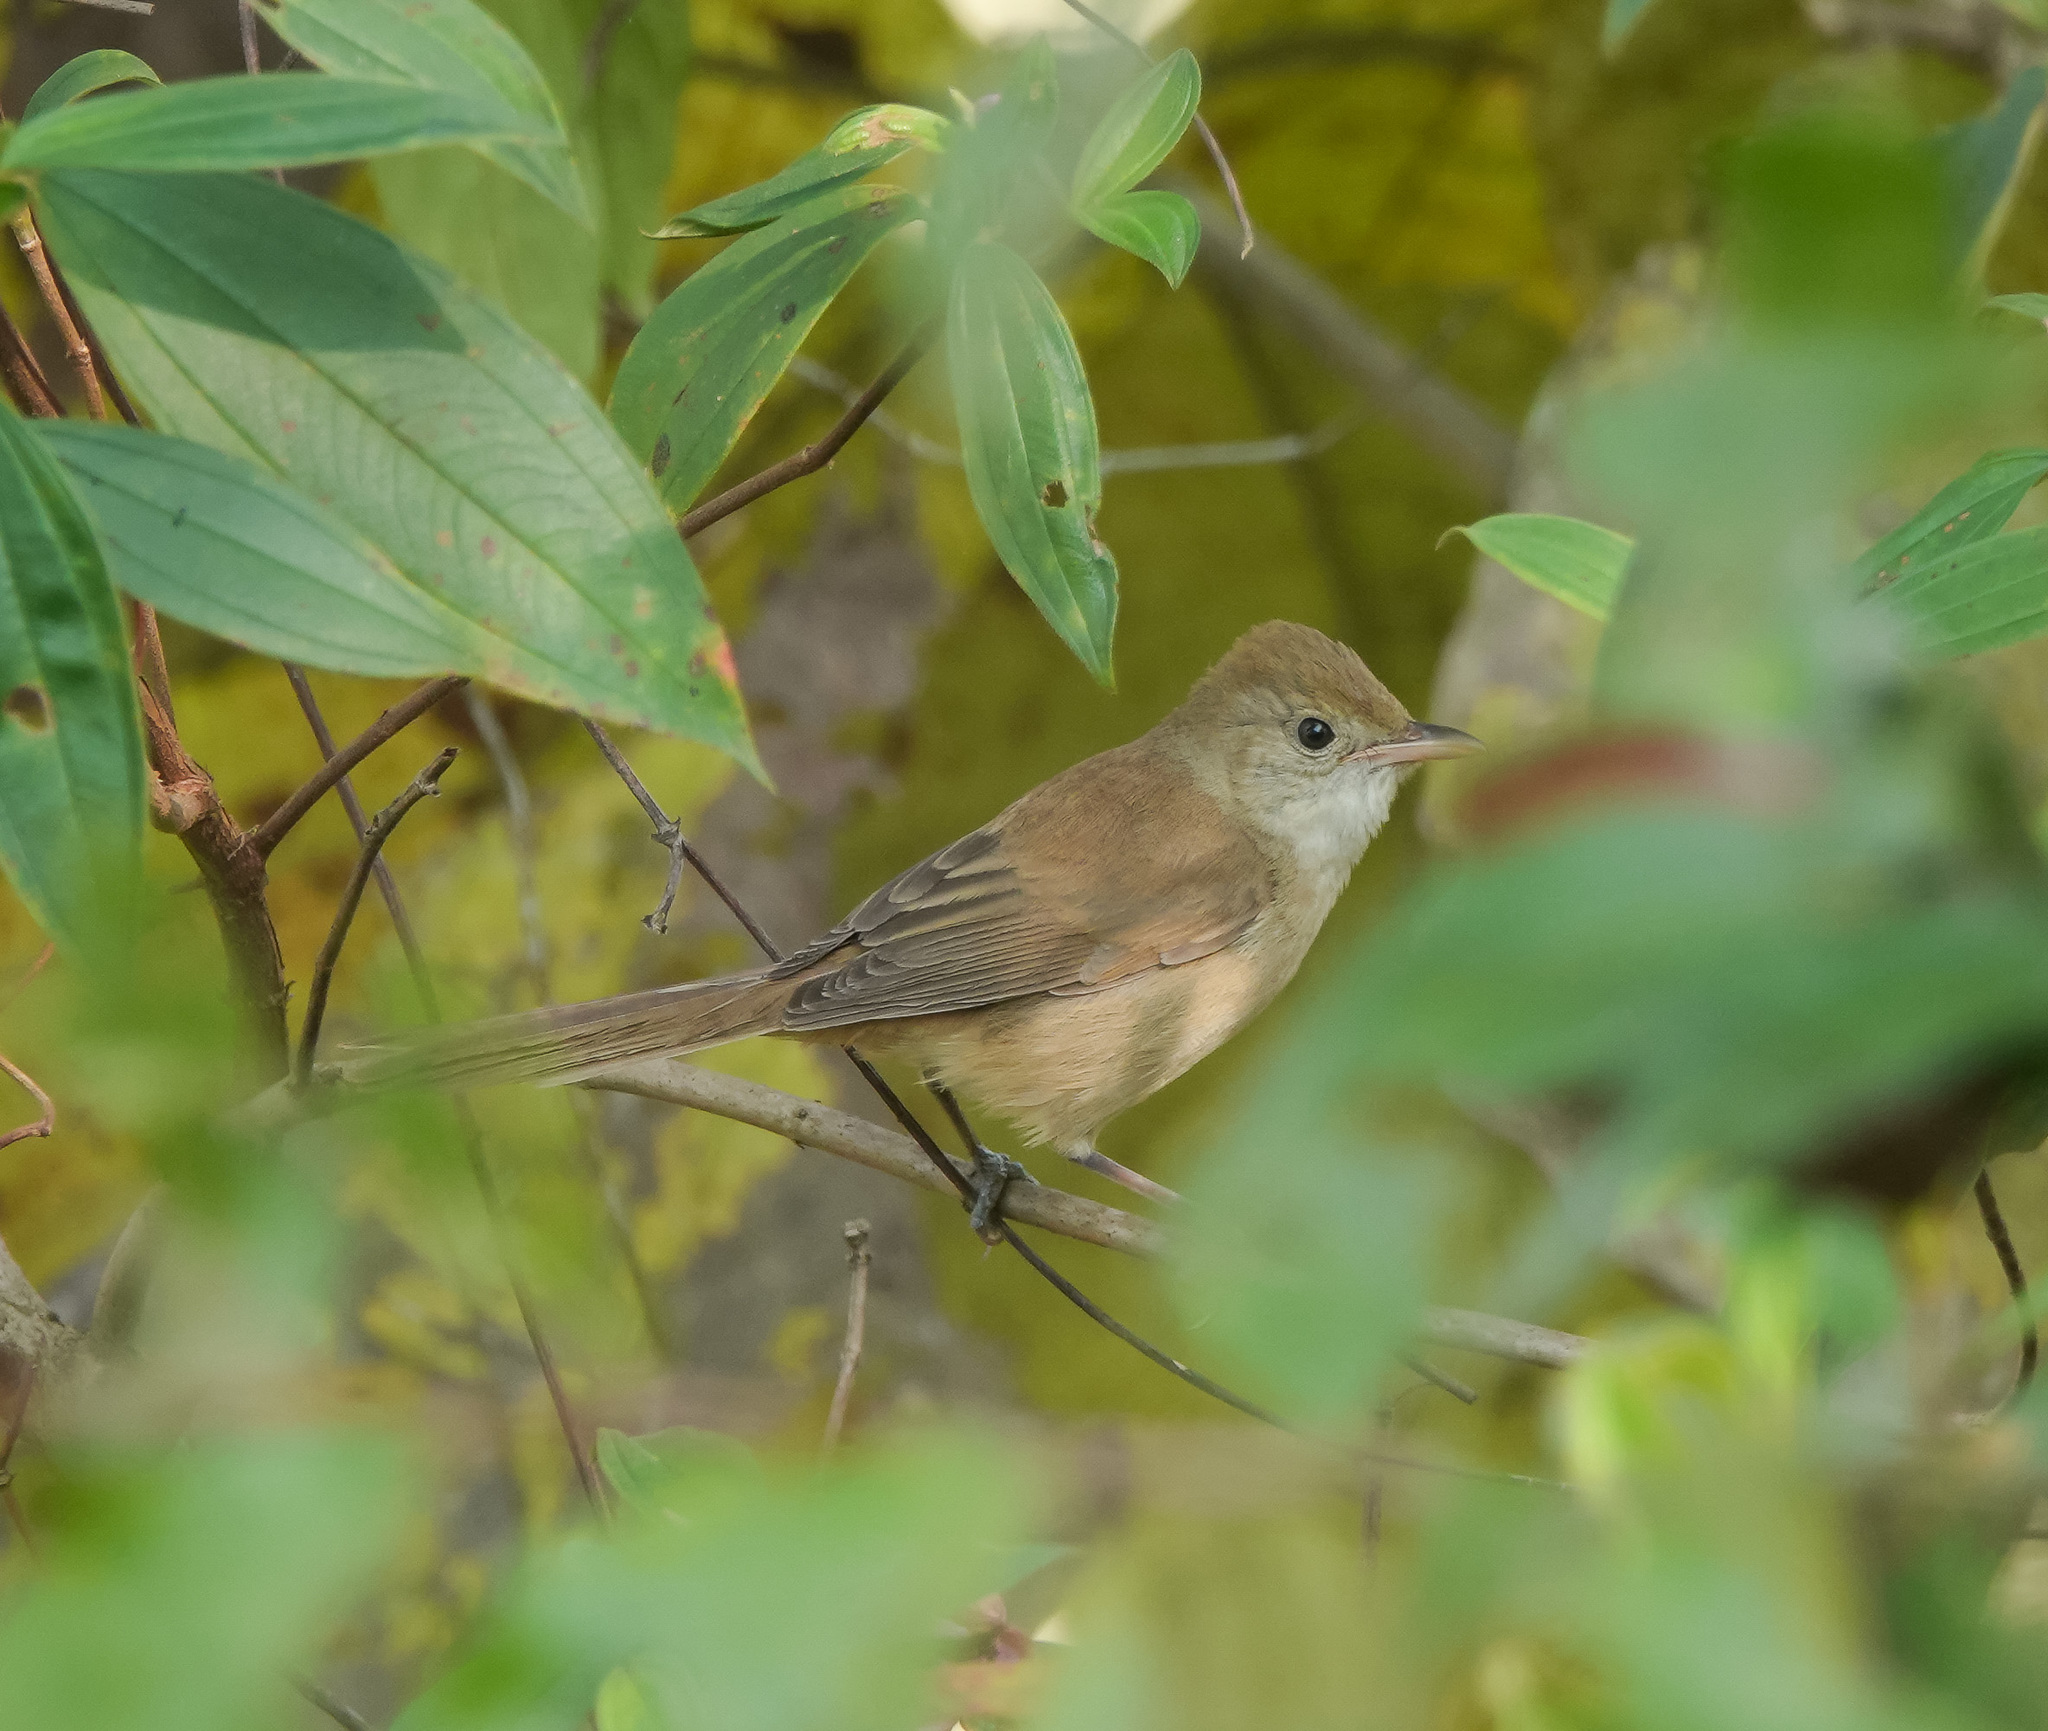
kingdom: Animalia
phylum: Chordata
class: Aves
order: Passeriformes
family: Acrocephalidae
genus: Iduna
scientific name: Iduna aedon
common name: Thick-billed warbler
